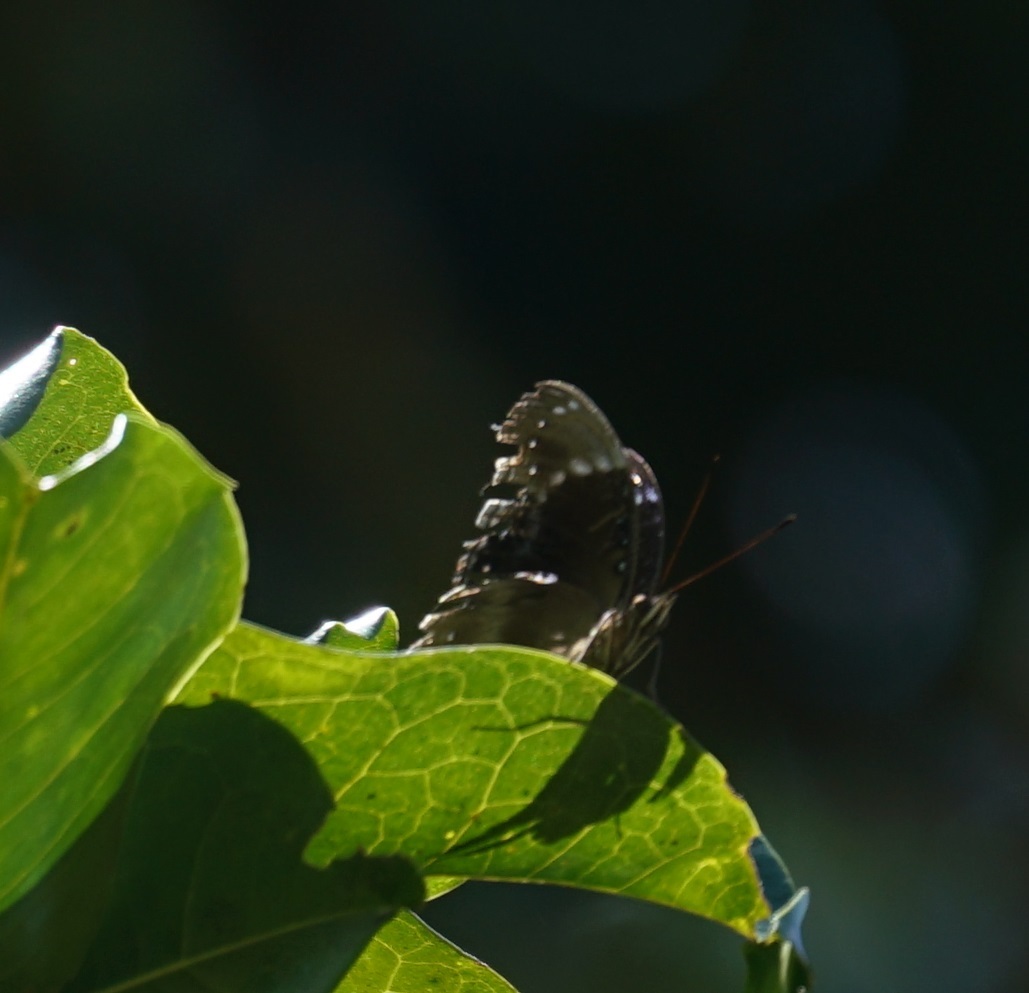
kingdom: Animalia
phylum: Arthropoda
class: Insecta
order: Lepidoptera
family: Nymphalidae
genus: Hypolimnas
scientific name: Hypolimnas alimena
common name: Blue-banded eggfly
